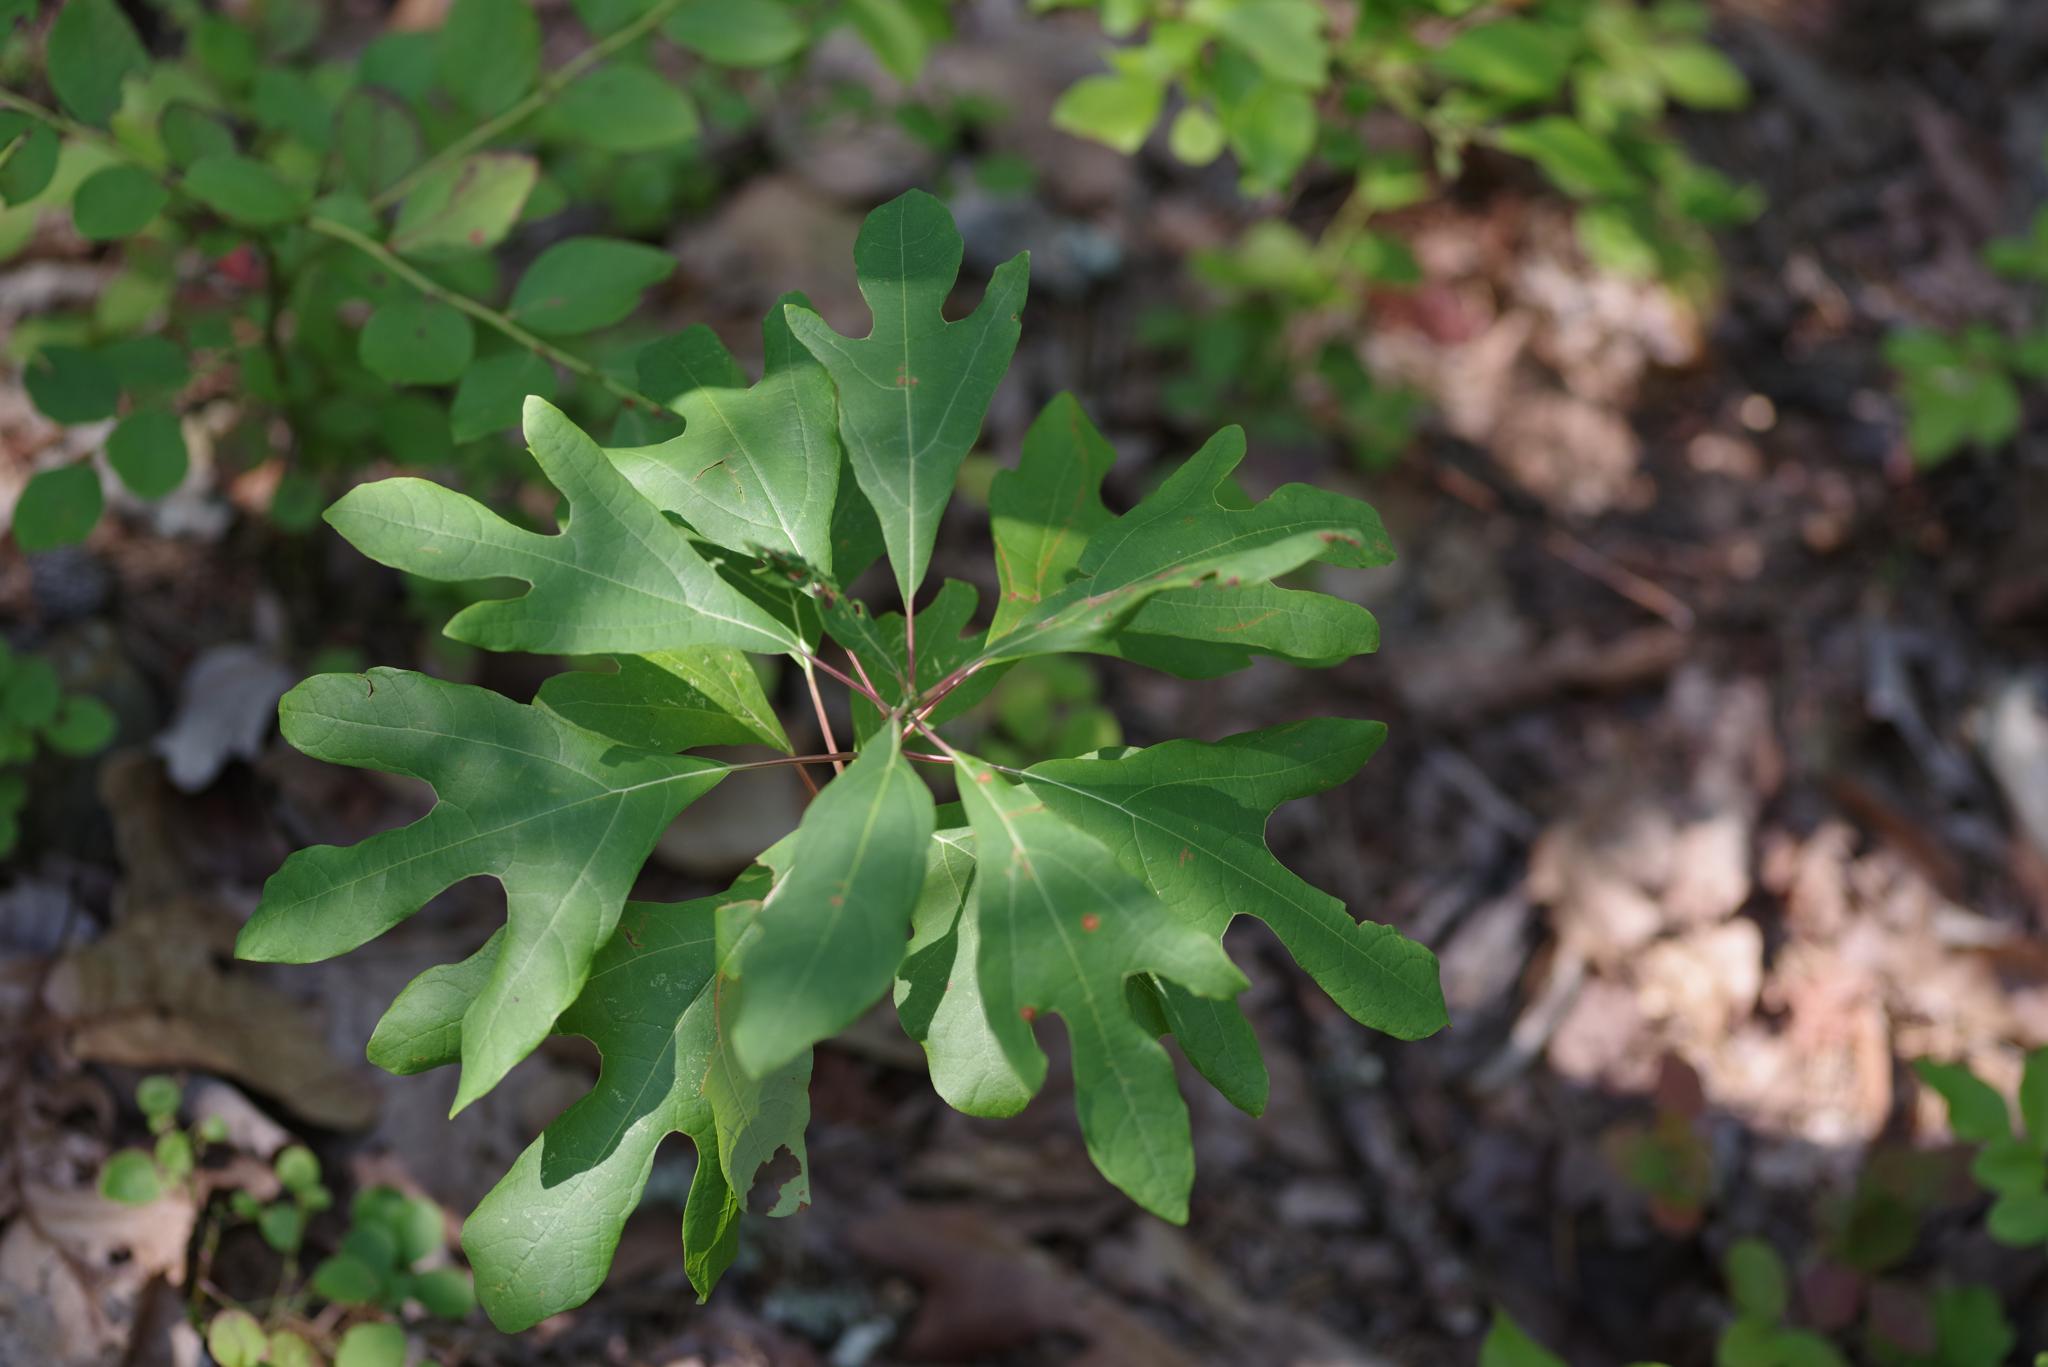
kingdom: Plantae
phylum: Tracheophyta
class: Magnoliopsida
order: Laurales
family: Lauraceae
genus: Sassafras
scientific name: Sassafras albidum
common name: Sassafras
